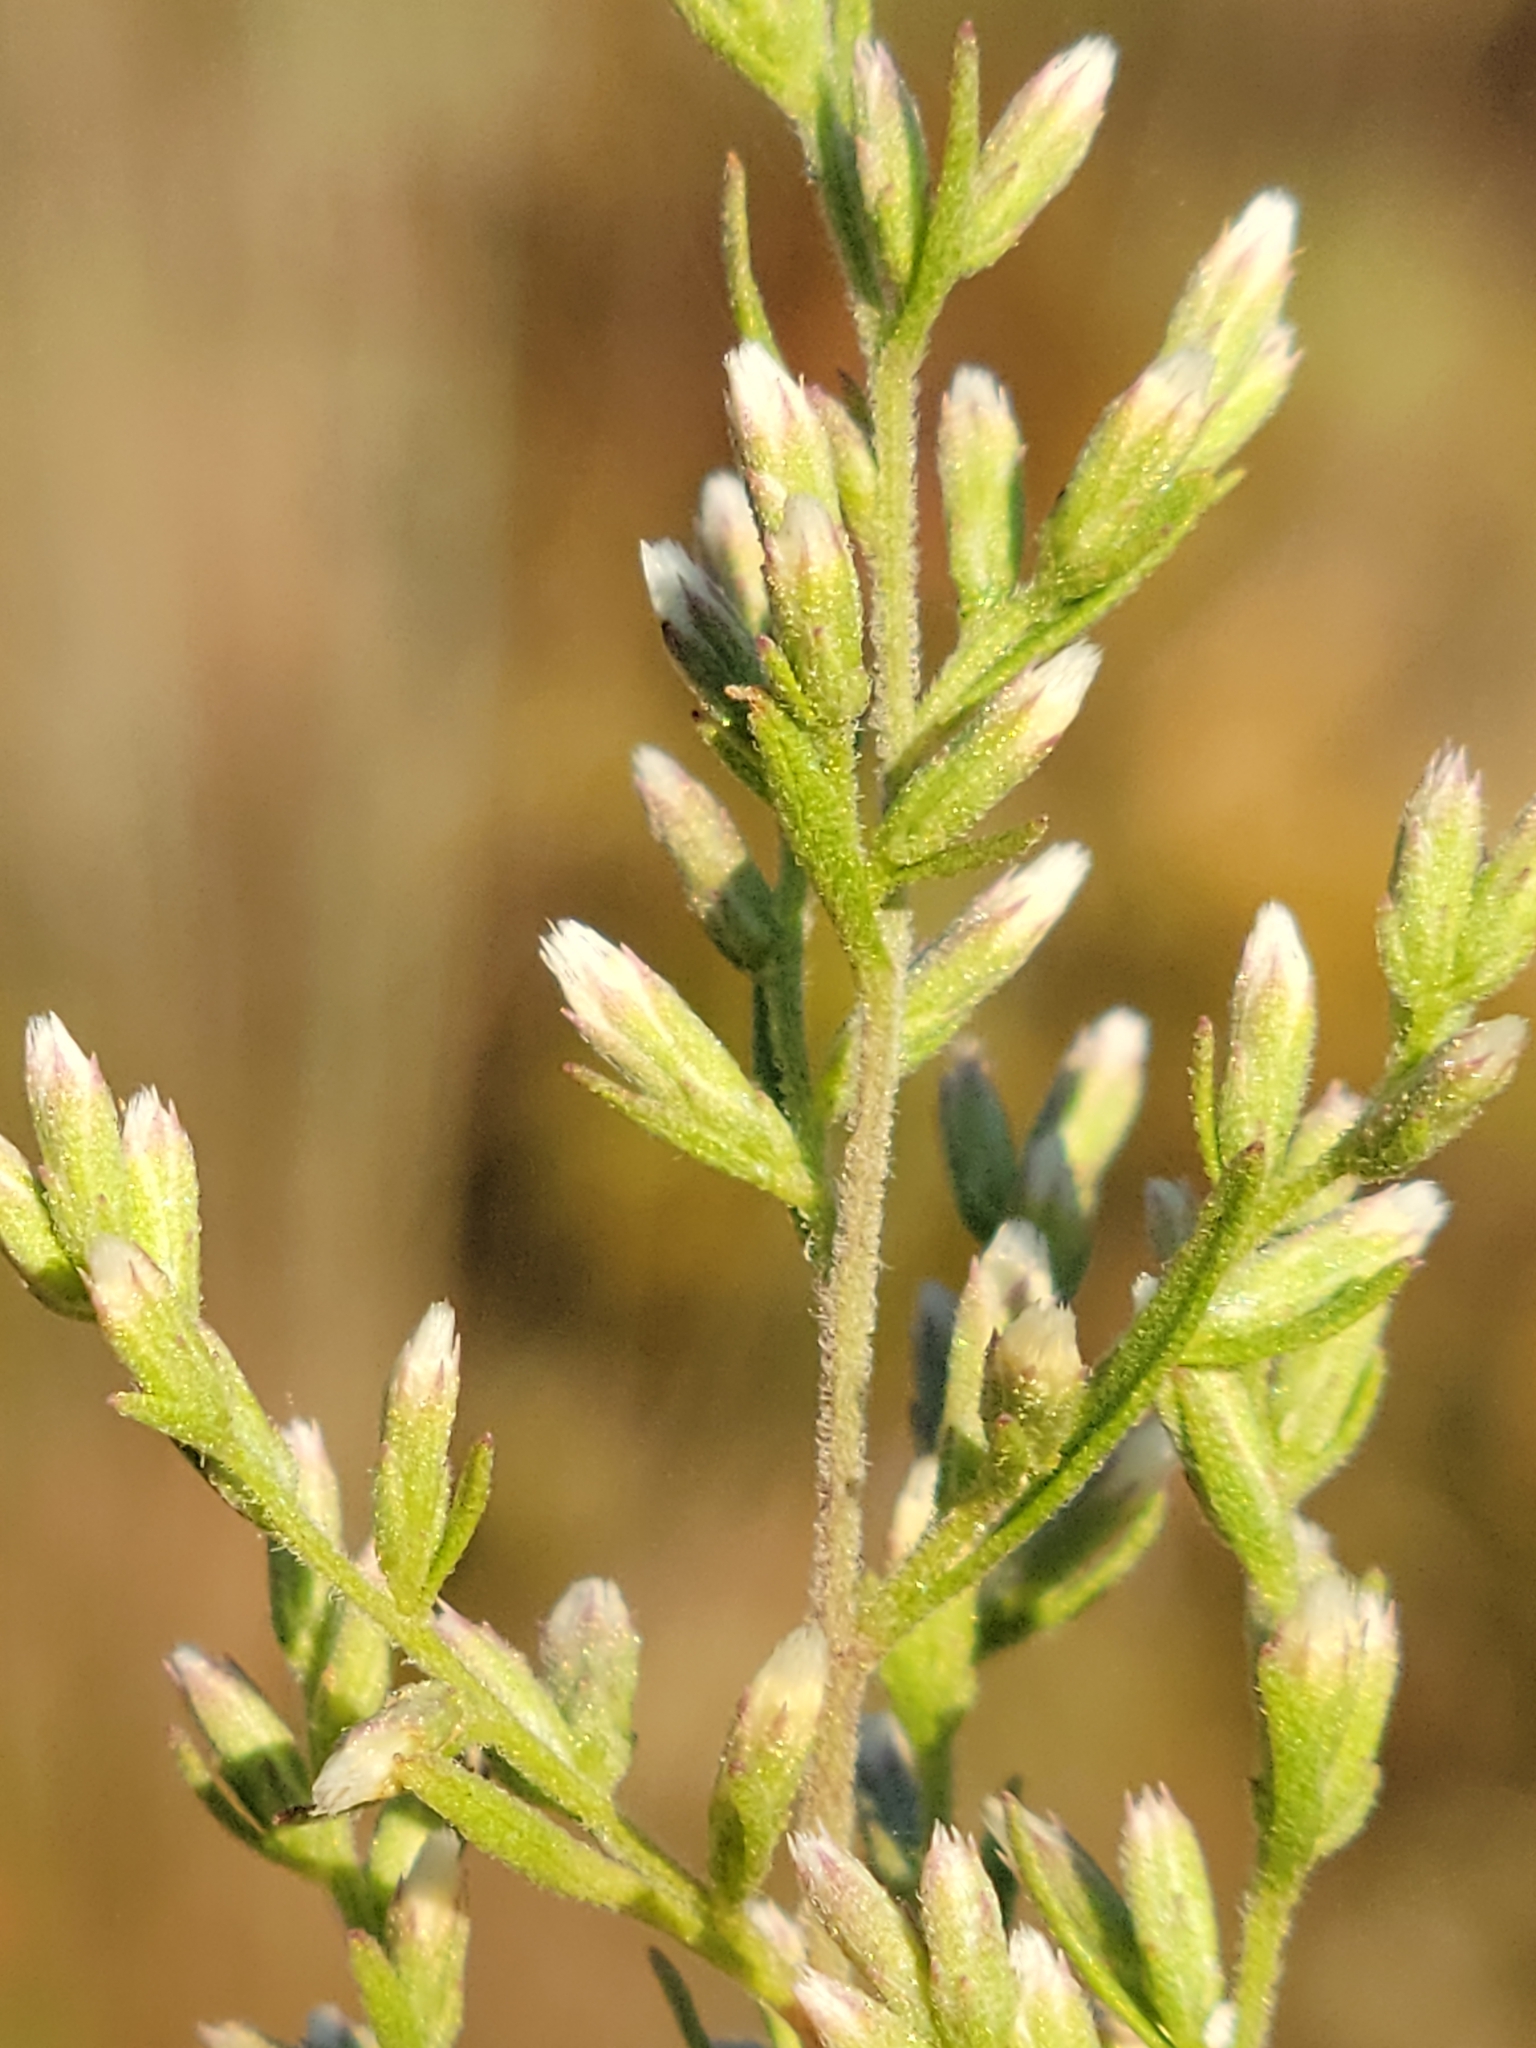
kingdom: Plantae
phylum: Tracheophyta
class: Magnoliopsida
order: Asterales
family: Asteraceae
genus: Eupatorium
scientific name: Eupatorium compositifolium
